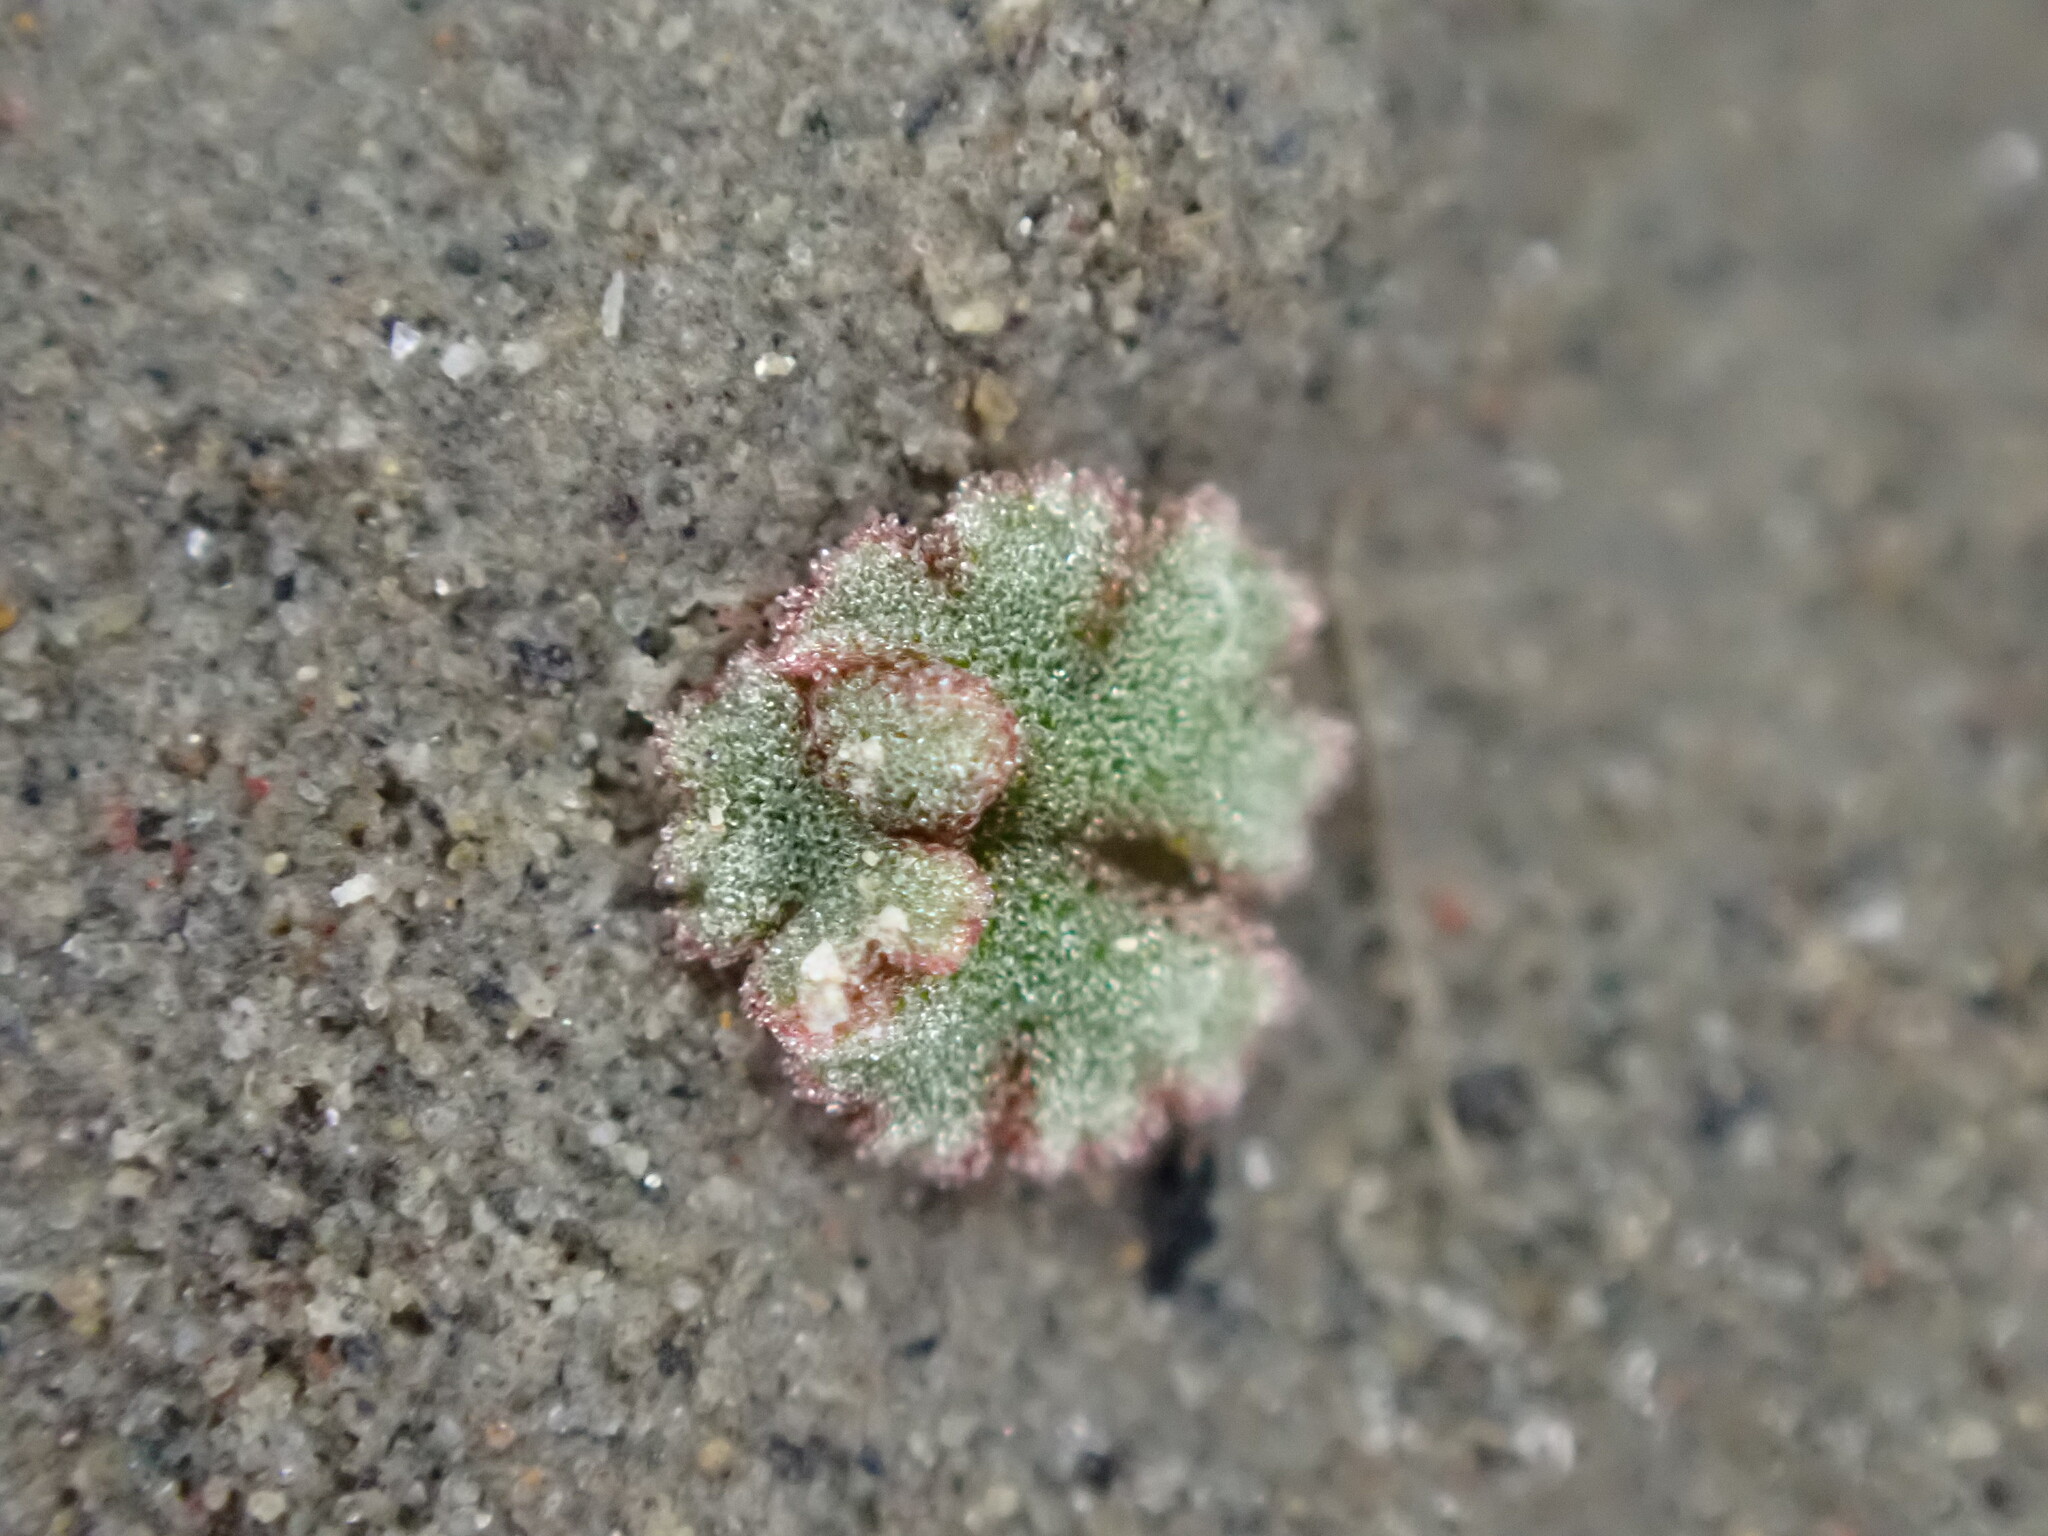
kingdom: Plantae
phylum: Marchantiophyta
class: Marchantiopsida
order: Marchantiales
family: Ricciaceae
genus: Riccia
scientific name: Riccia frostii
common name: Frost s crystalwort
